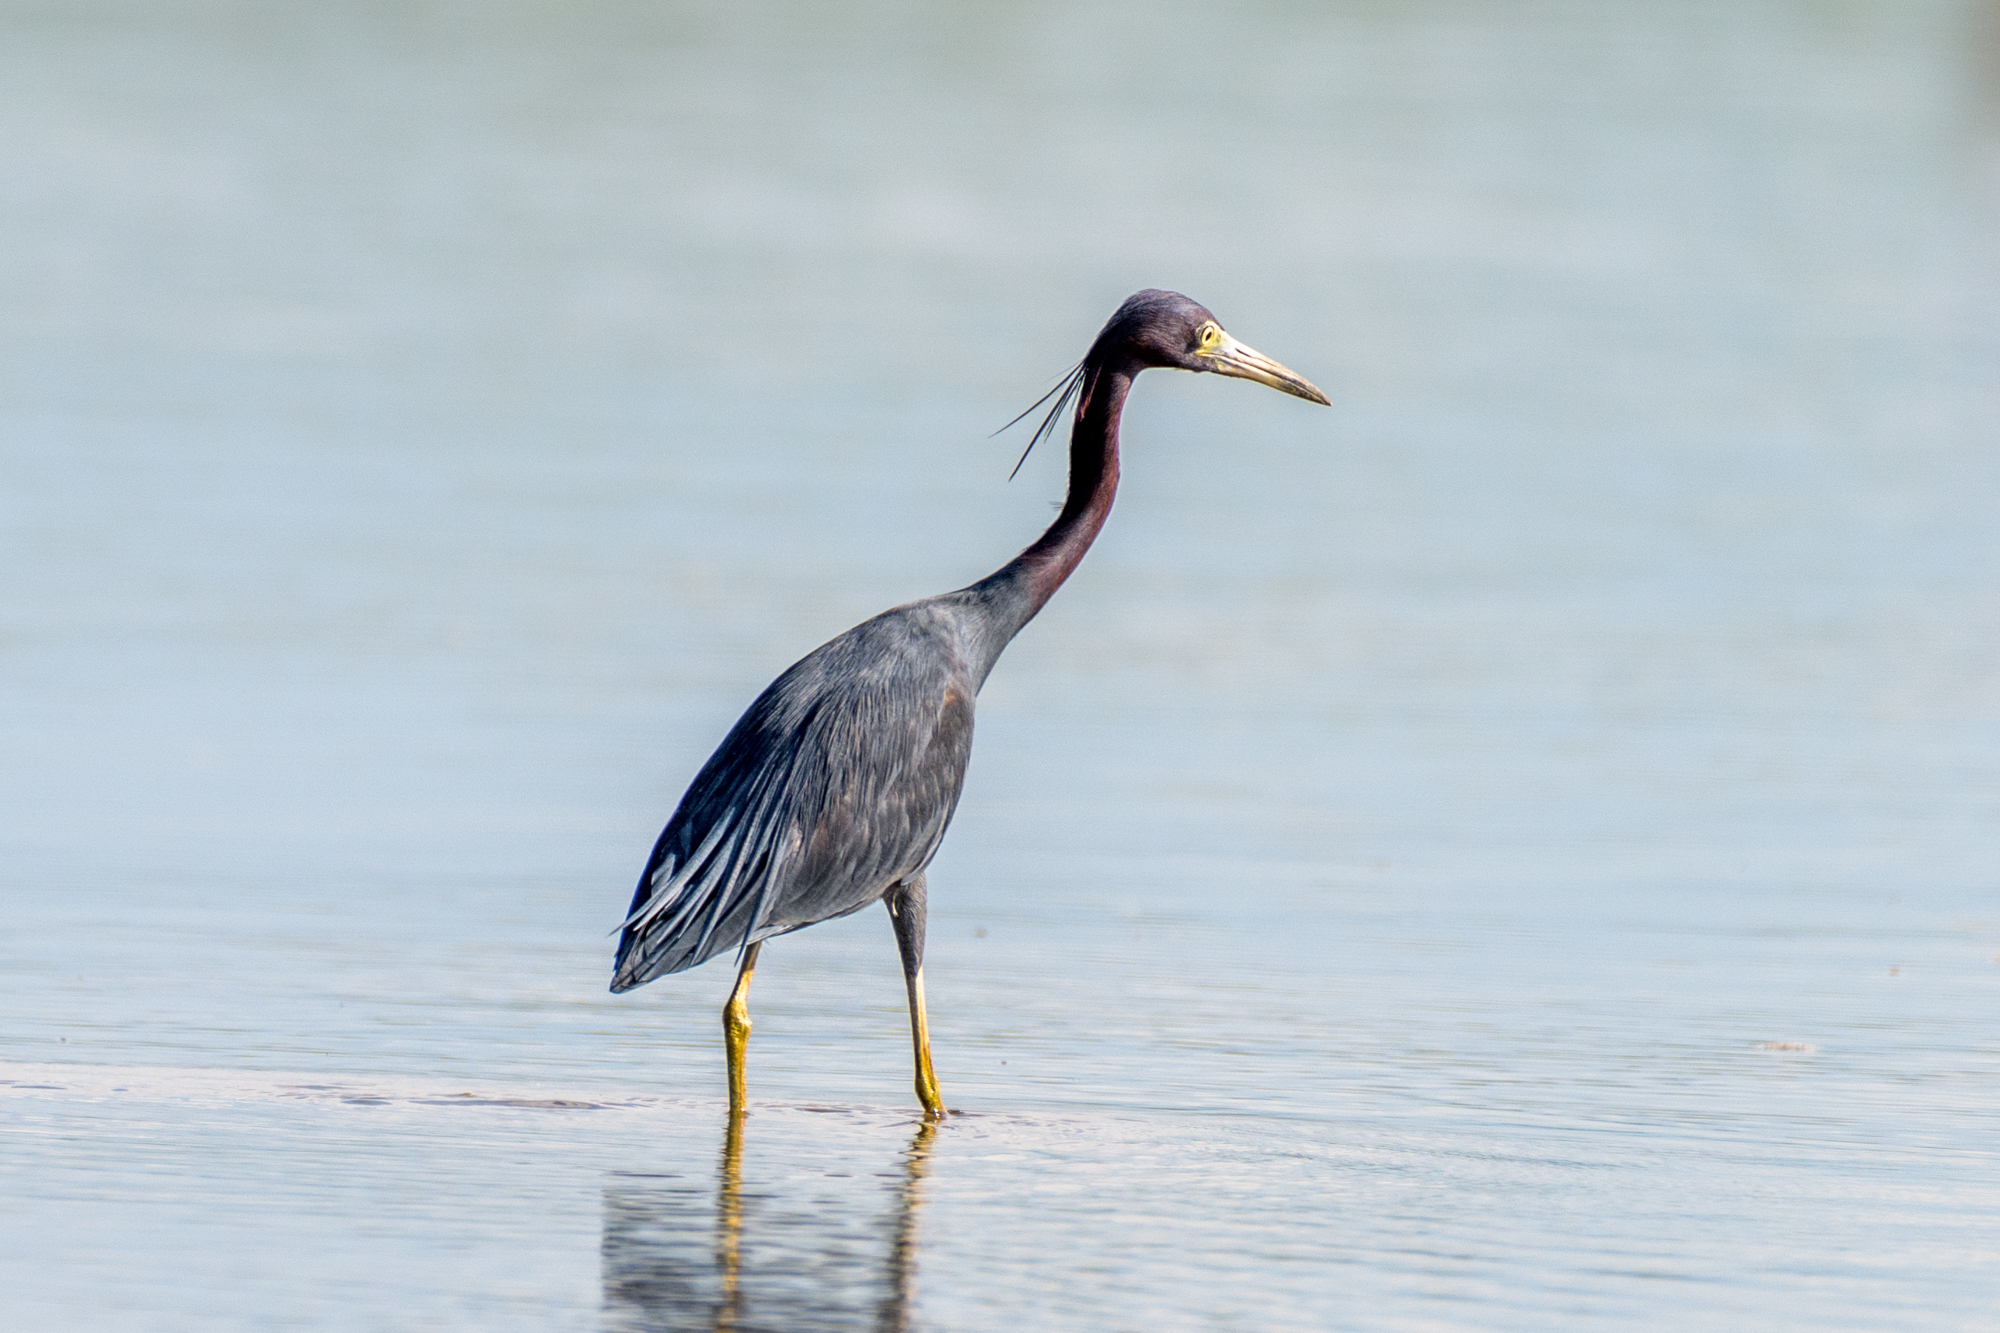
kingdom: Animalia
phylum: Chordata
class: Aves
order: Pelecaniformes
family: Ardeidae
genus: Egretta
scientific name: Egretta caerulea
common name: Little blue heron
